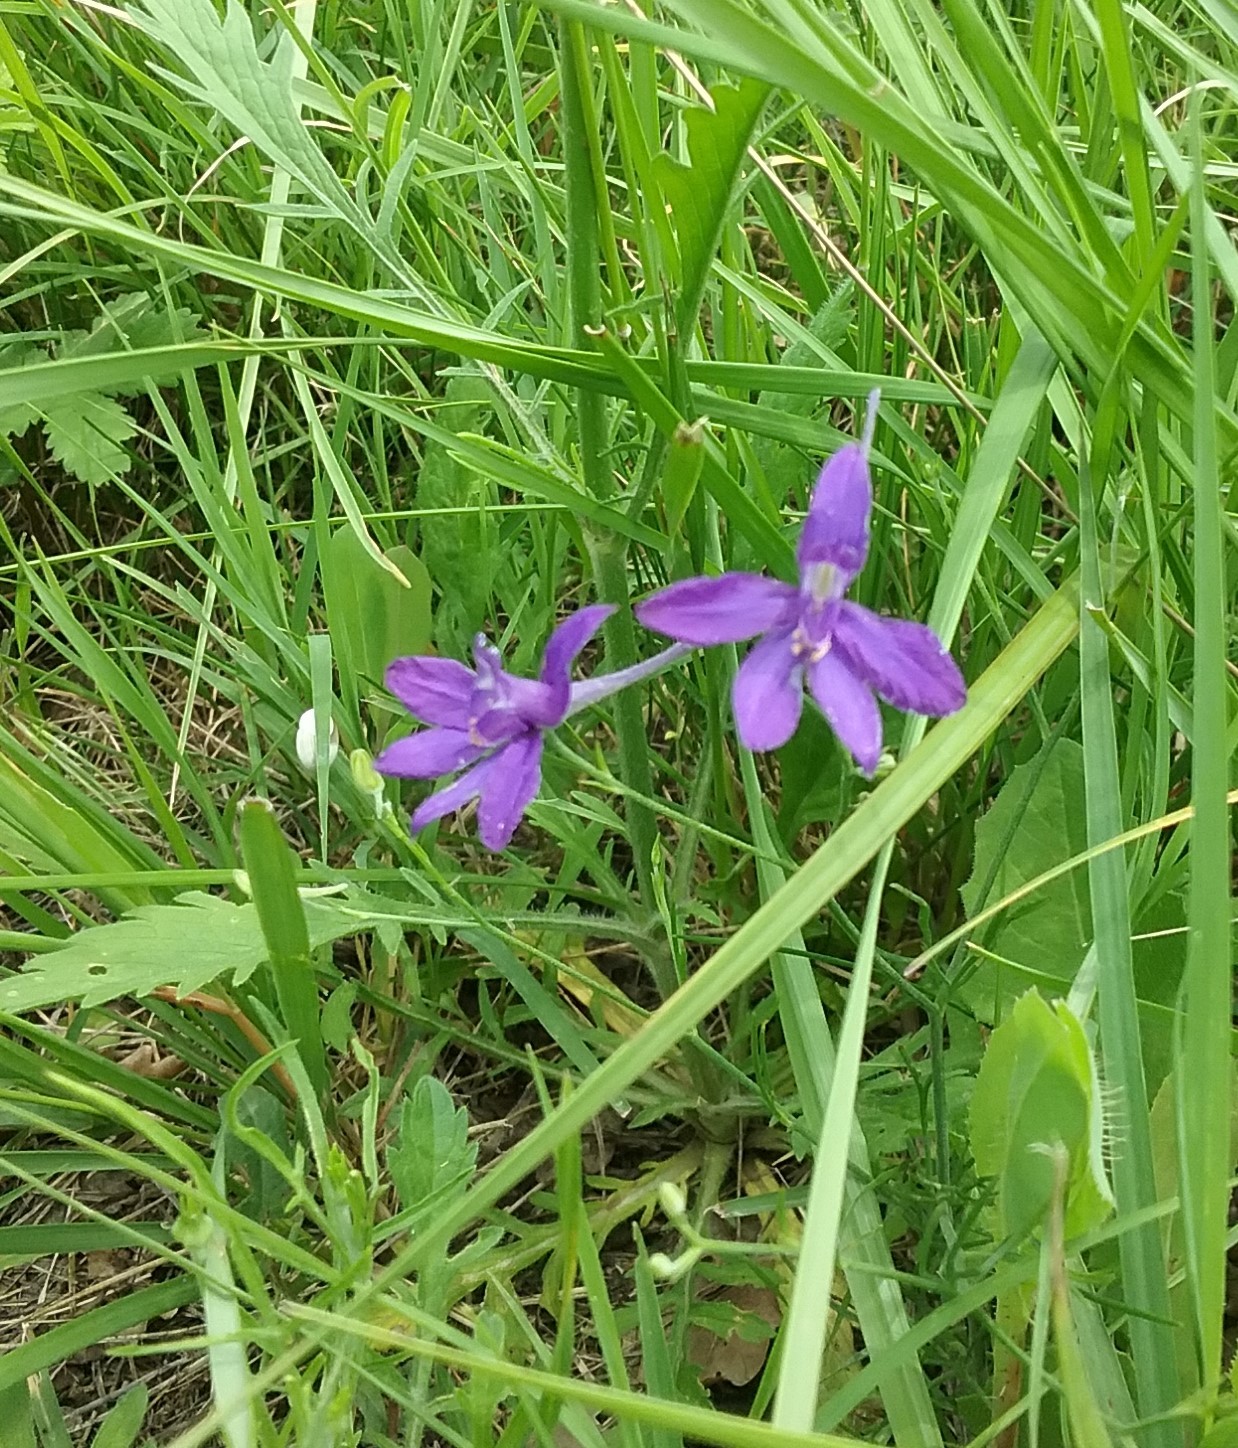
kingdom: Plantae
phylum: Tracheophyta
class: Magnoliopsida
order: Ranunculales
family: Ranunculaceae
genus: Delphinium
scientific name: Delphinium consolida
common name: Branching larkspur
